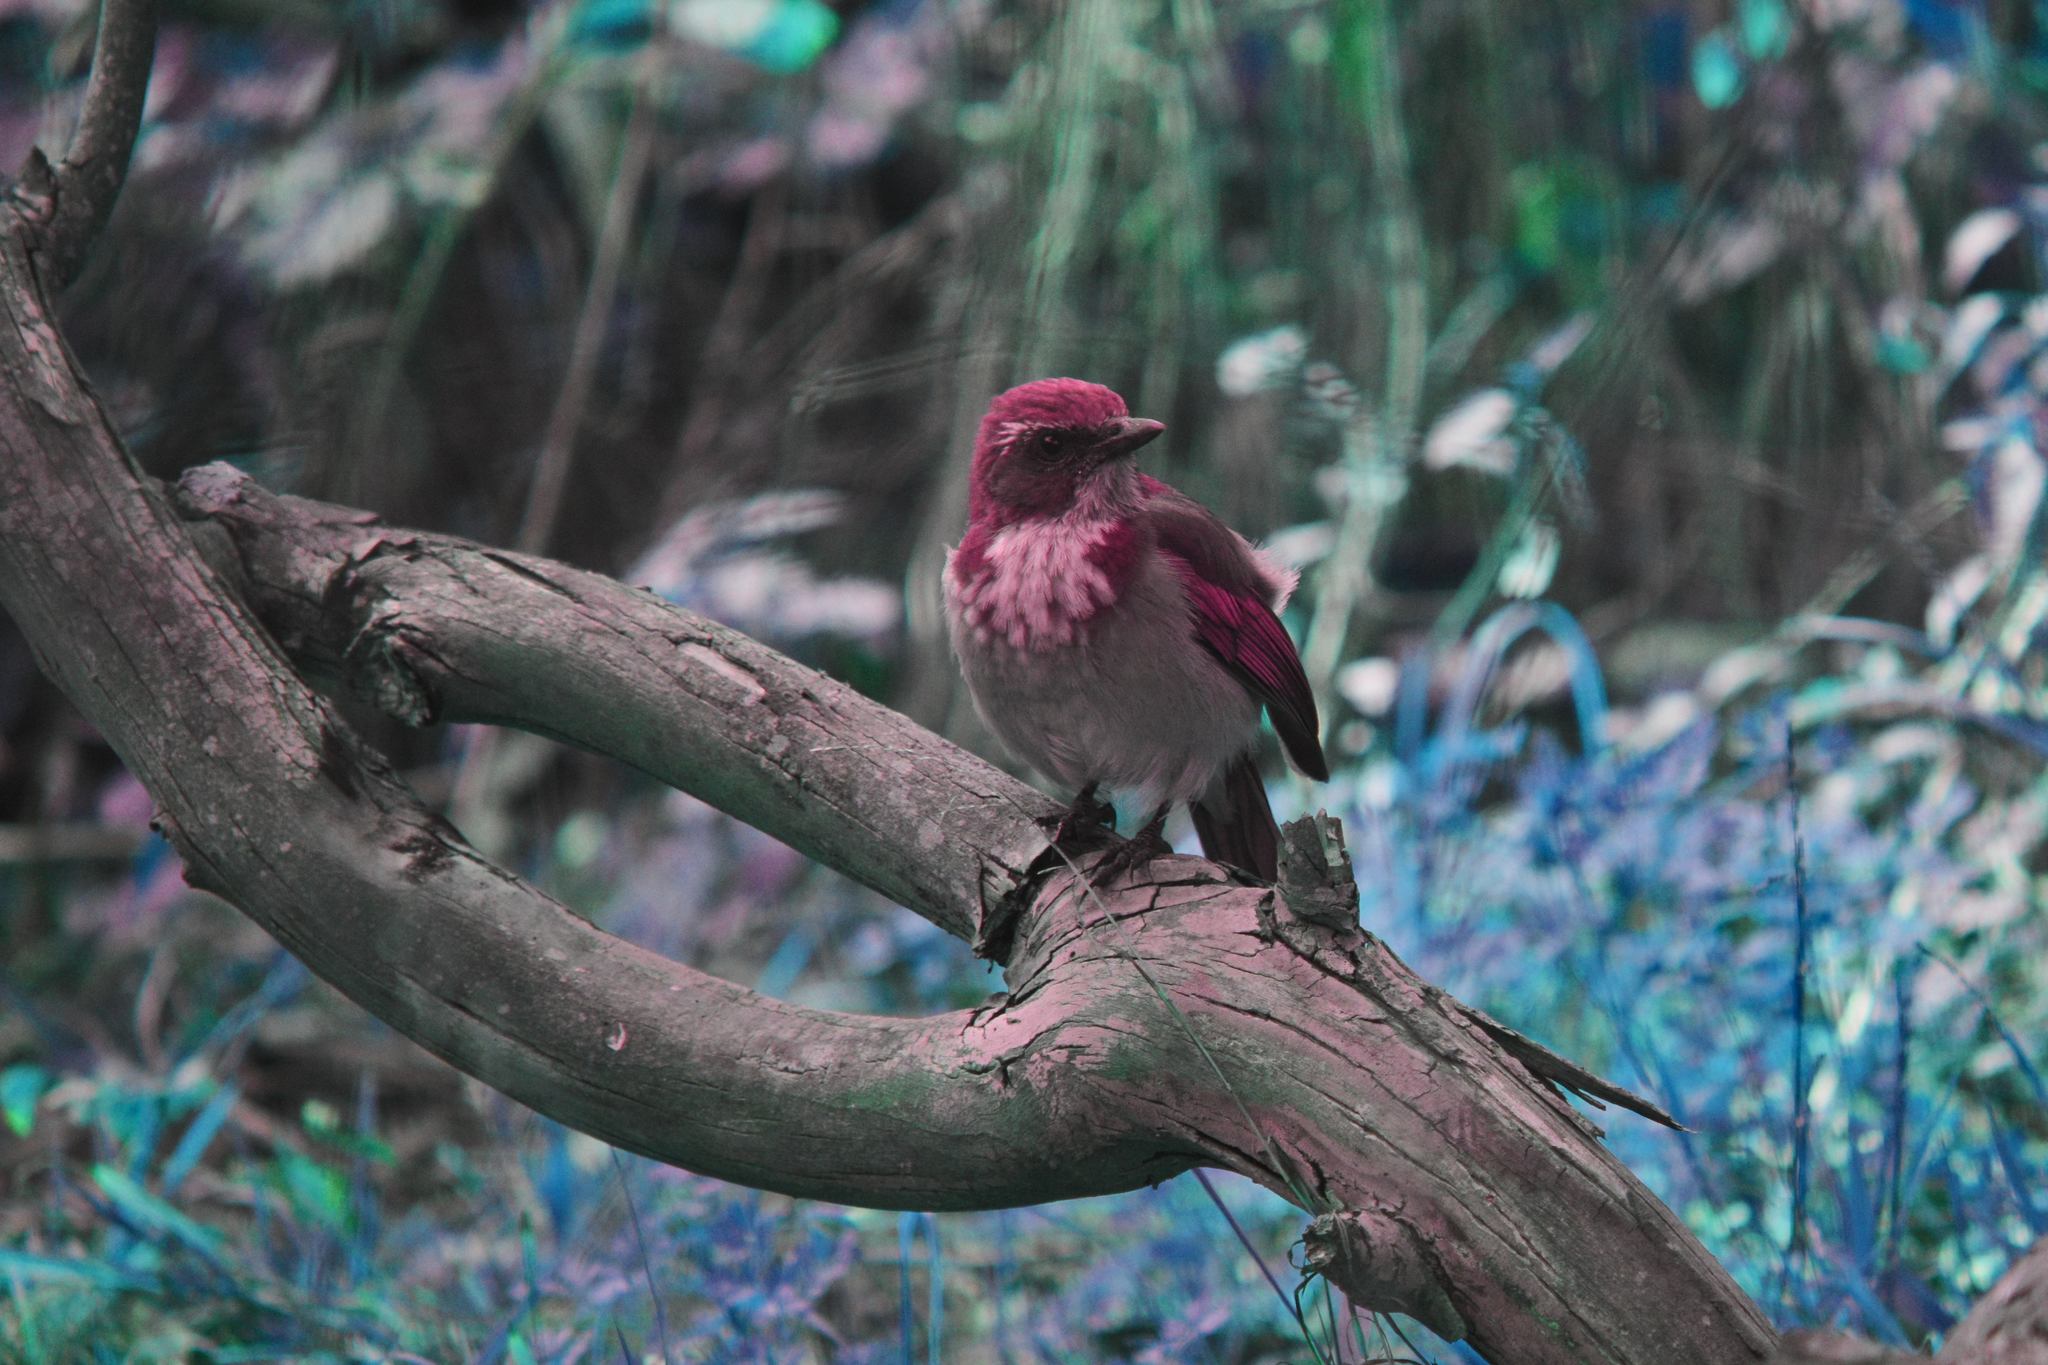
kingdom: Animalia
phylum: Chordata
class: Aves
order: Passeriformes
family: Corvidae
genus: Aphelocoma
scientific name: Aphelocoma californica
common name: California scrub-jay
